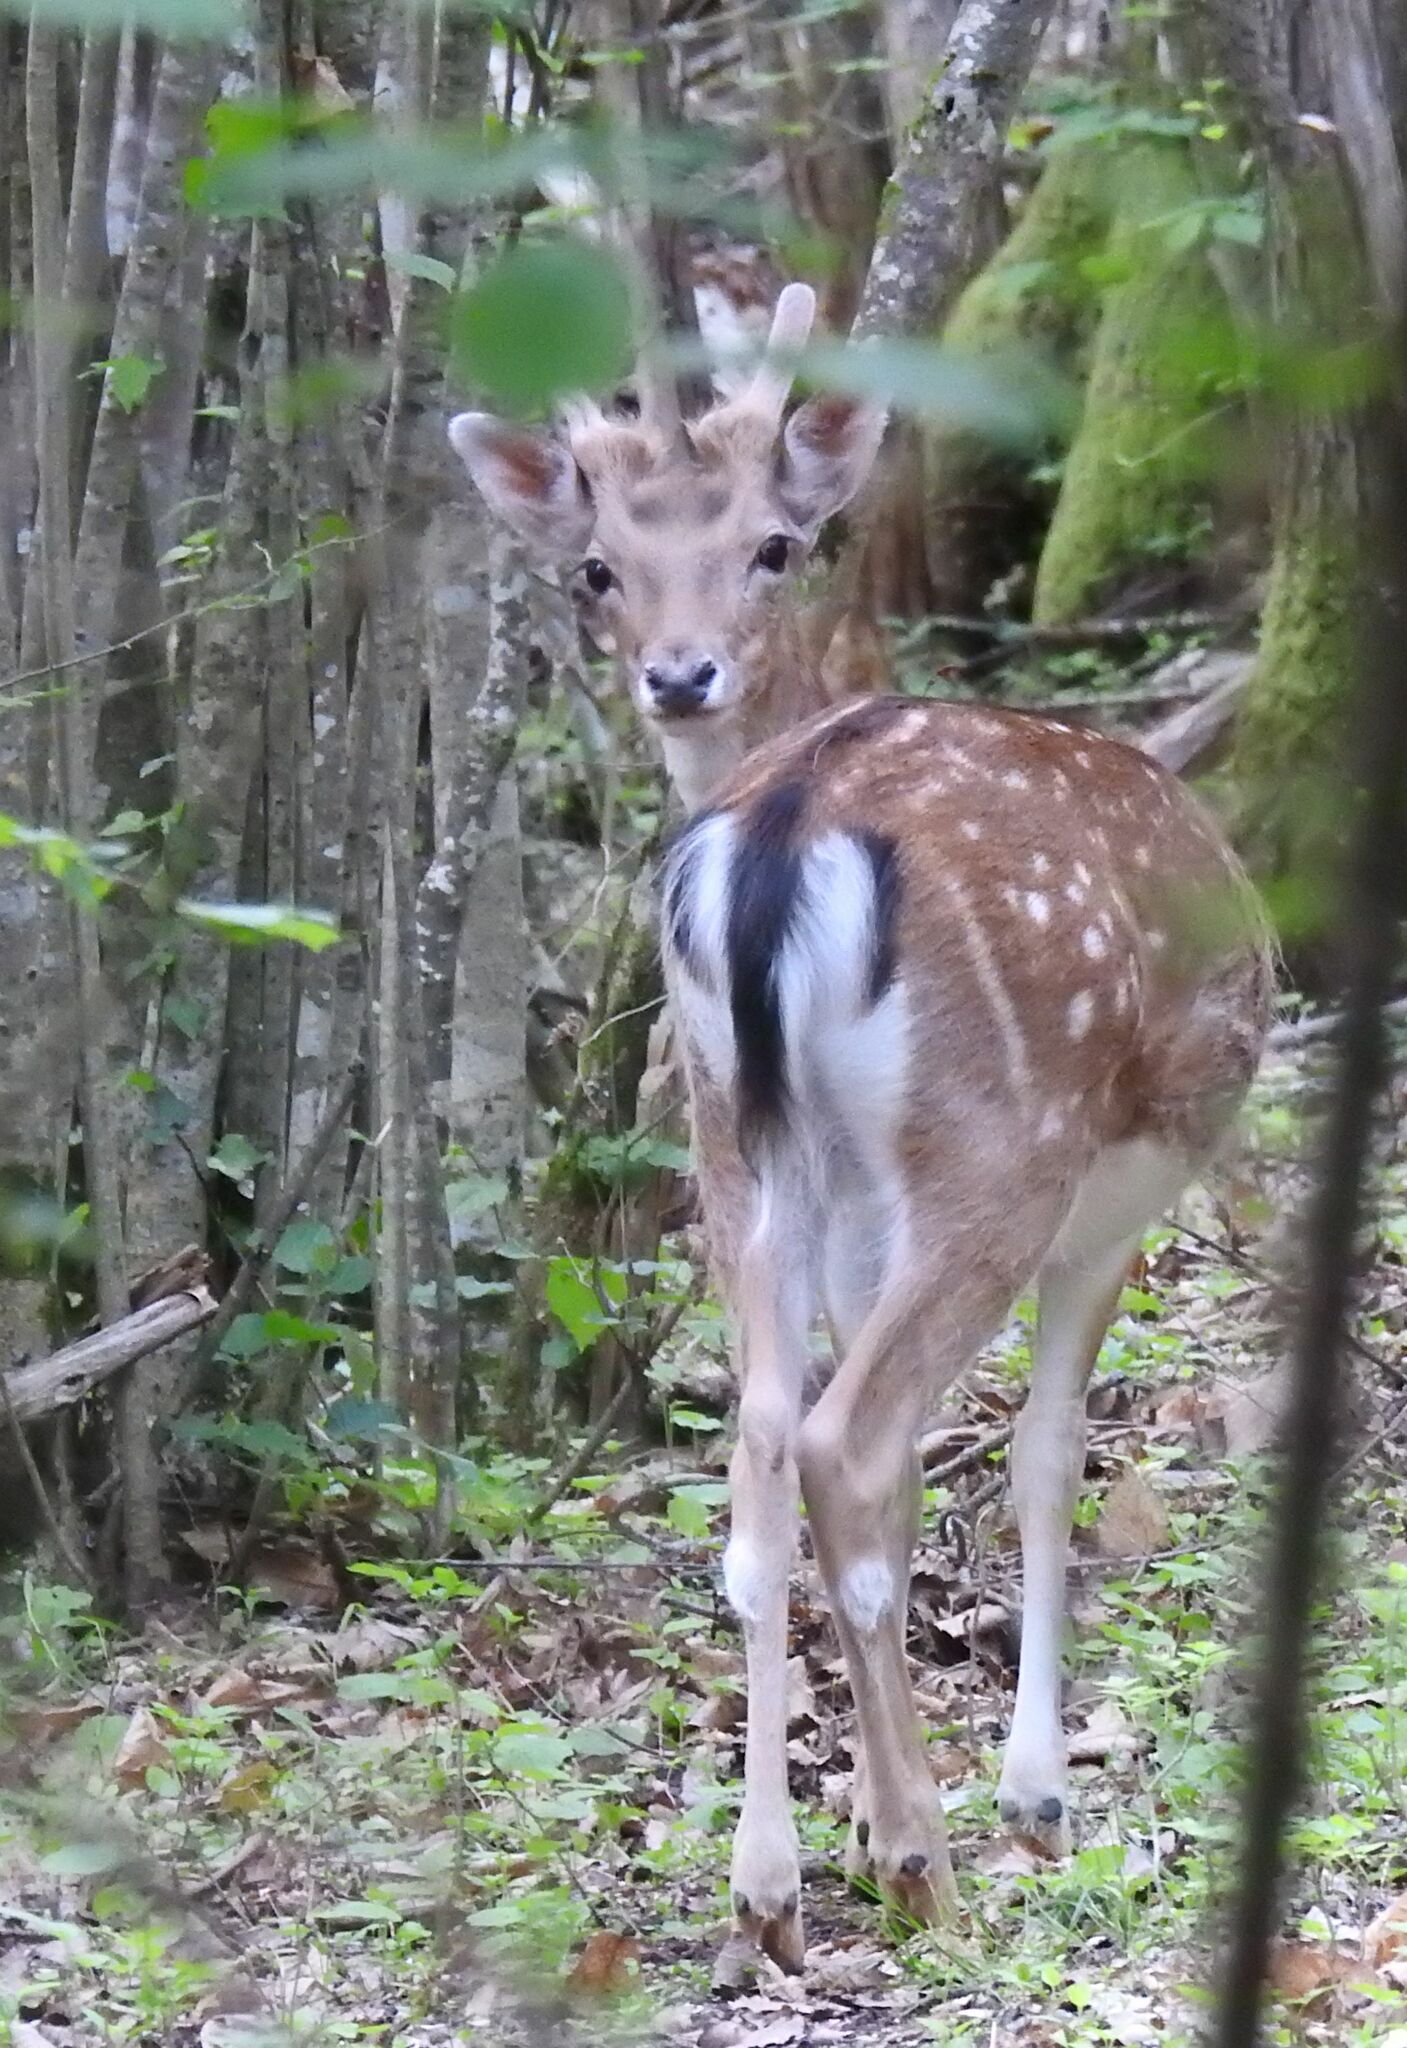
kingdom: Animalia
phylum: Chordata
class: Mammalia
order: Artiodactyla
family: Cervidae
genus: Dama
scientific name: Dama dama
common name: Fallow deer
